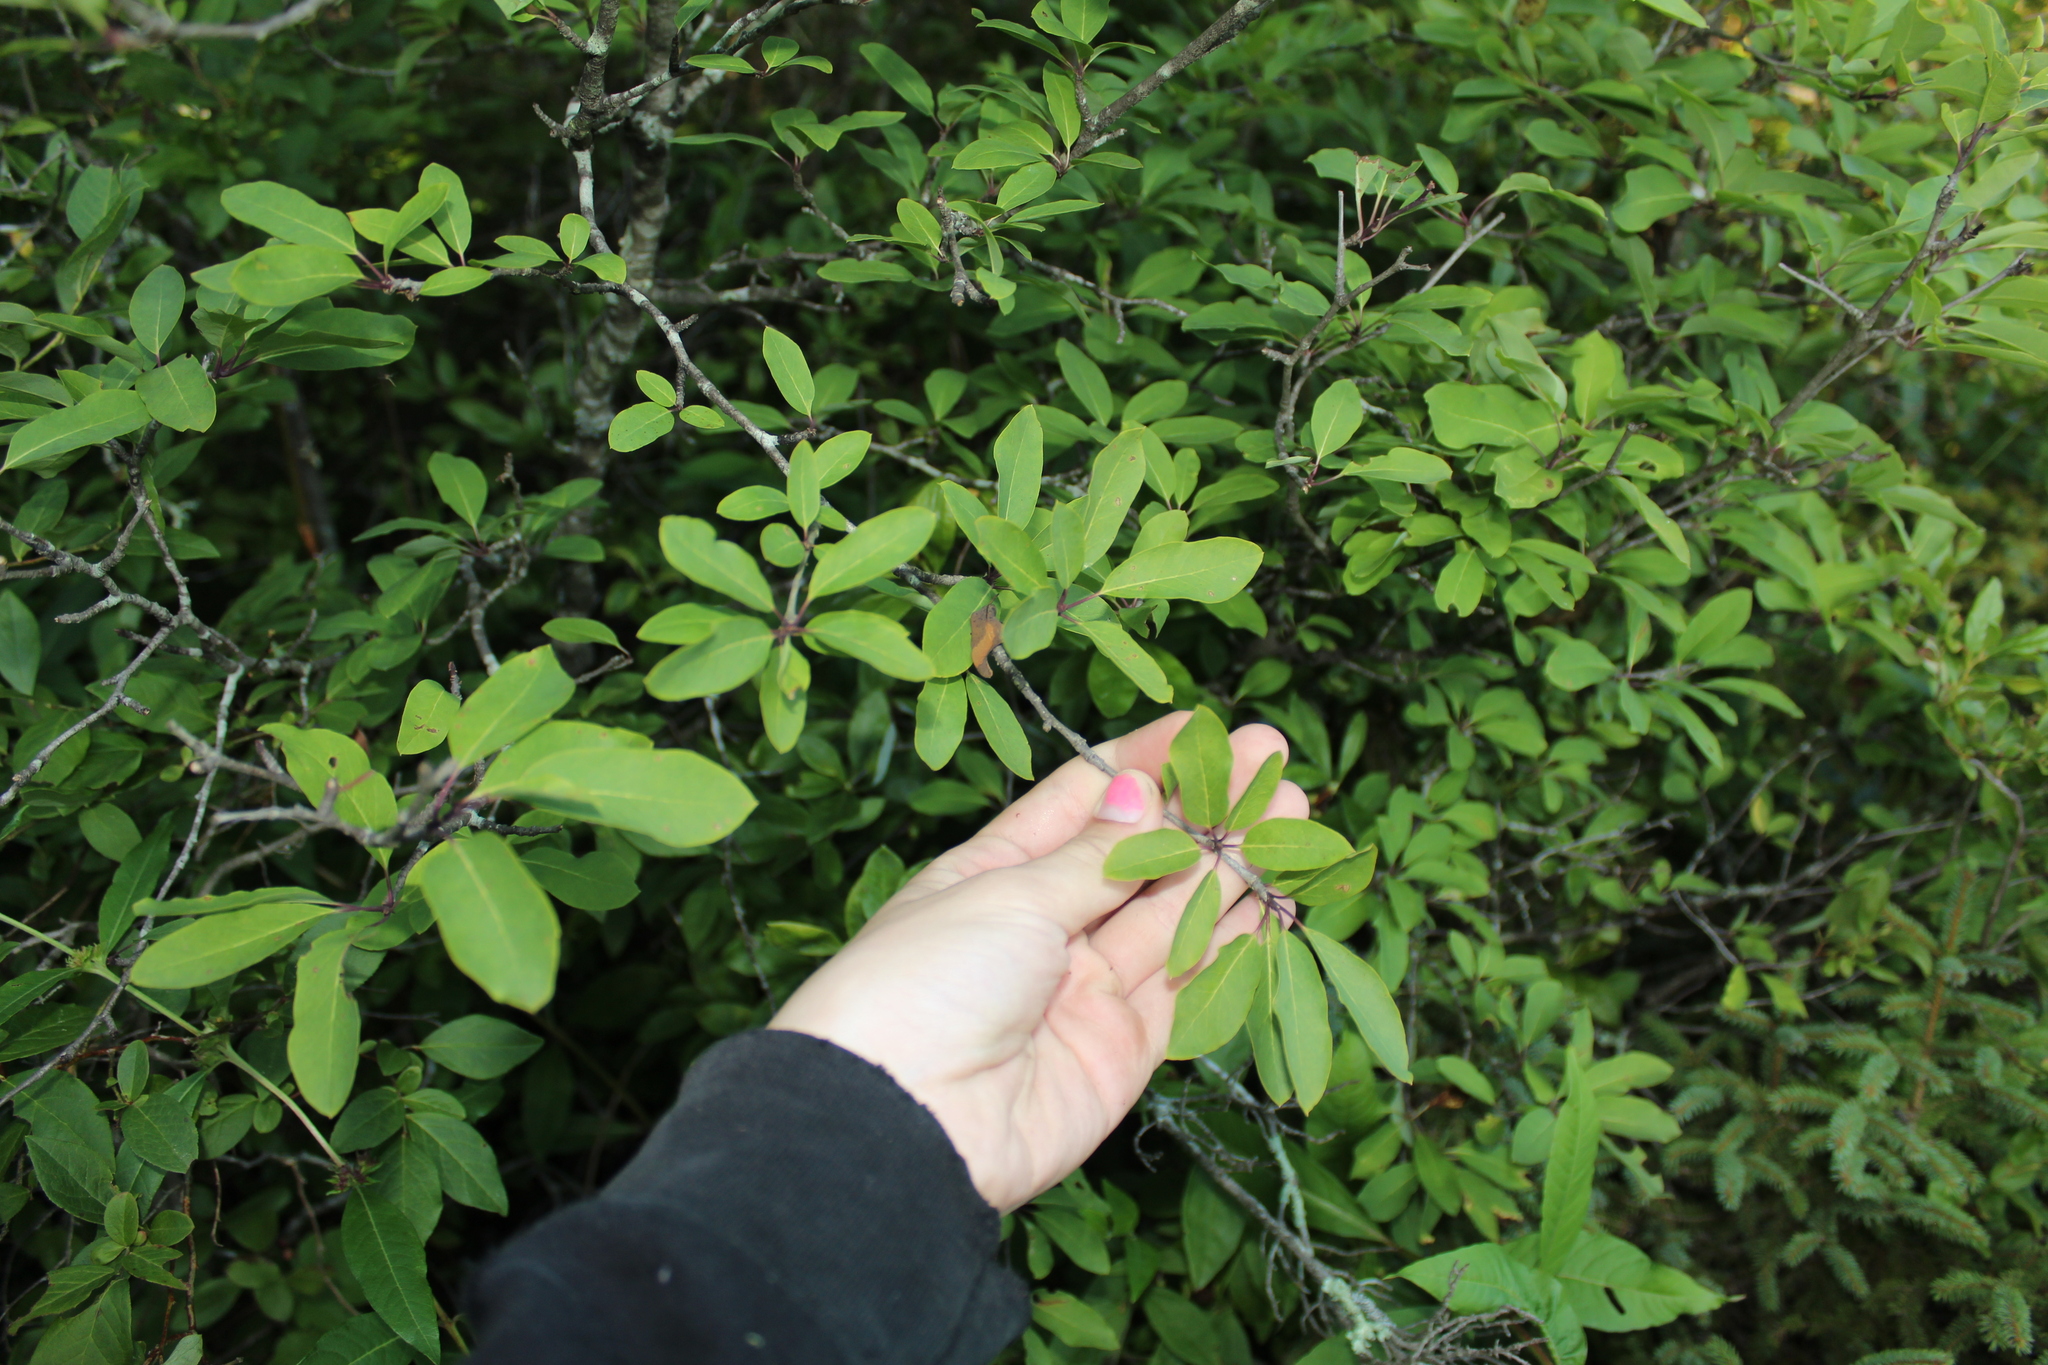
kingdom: Plantae
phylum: Tracheophyta
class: Magnoliopsida
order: Aquifoliales
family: Aquifoliaceae
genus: Ilex
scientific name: Ilex mucronata
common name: Catberry
